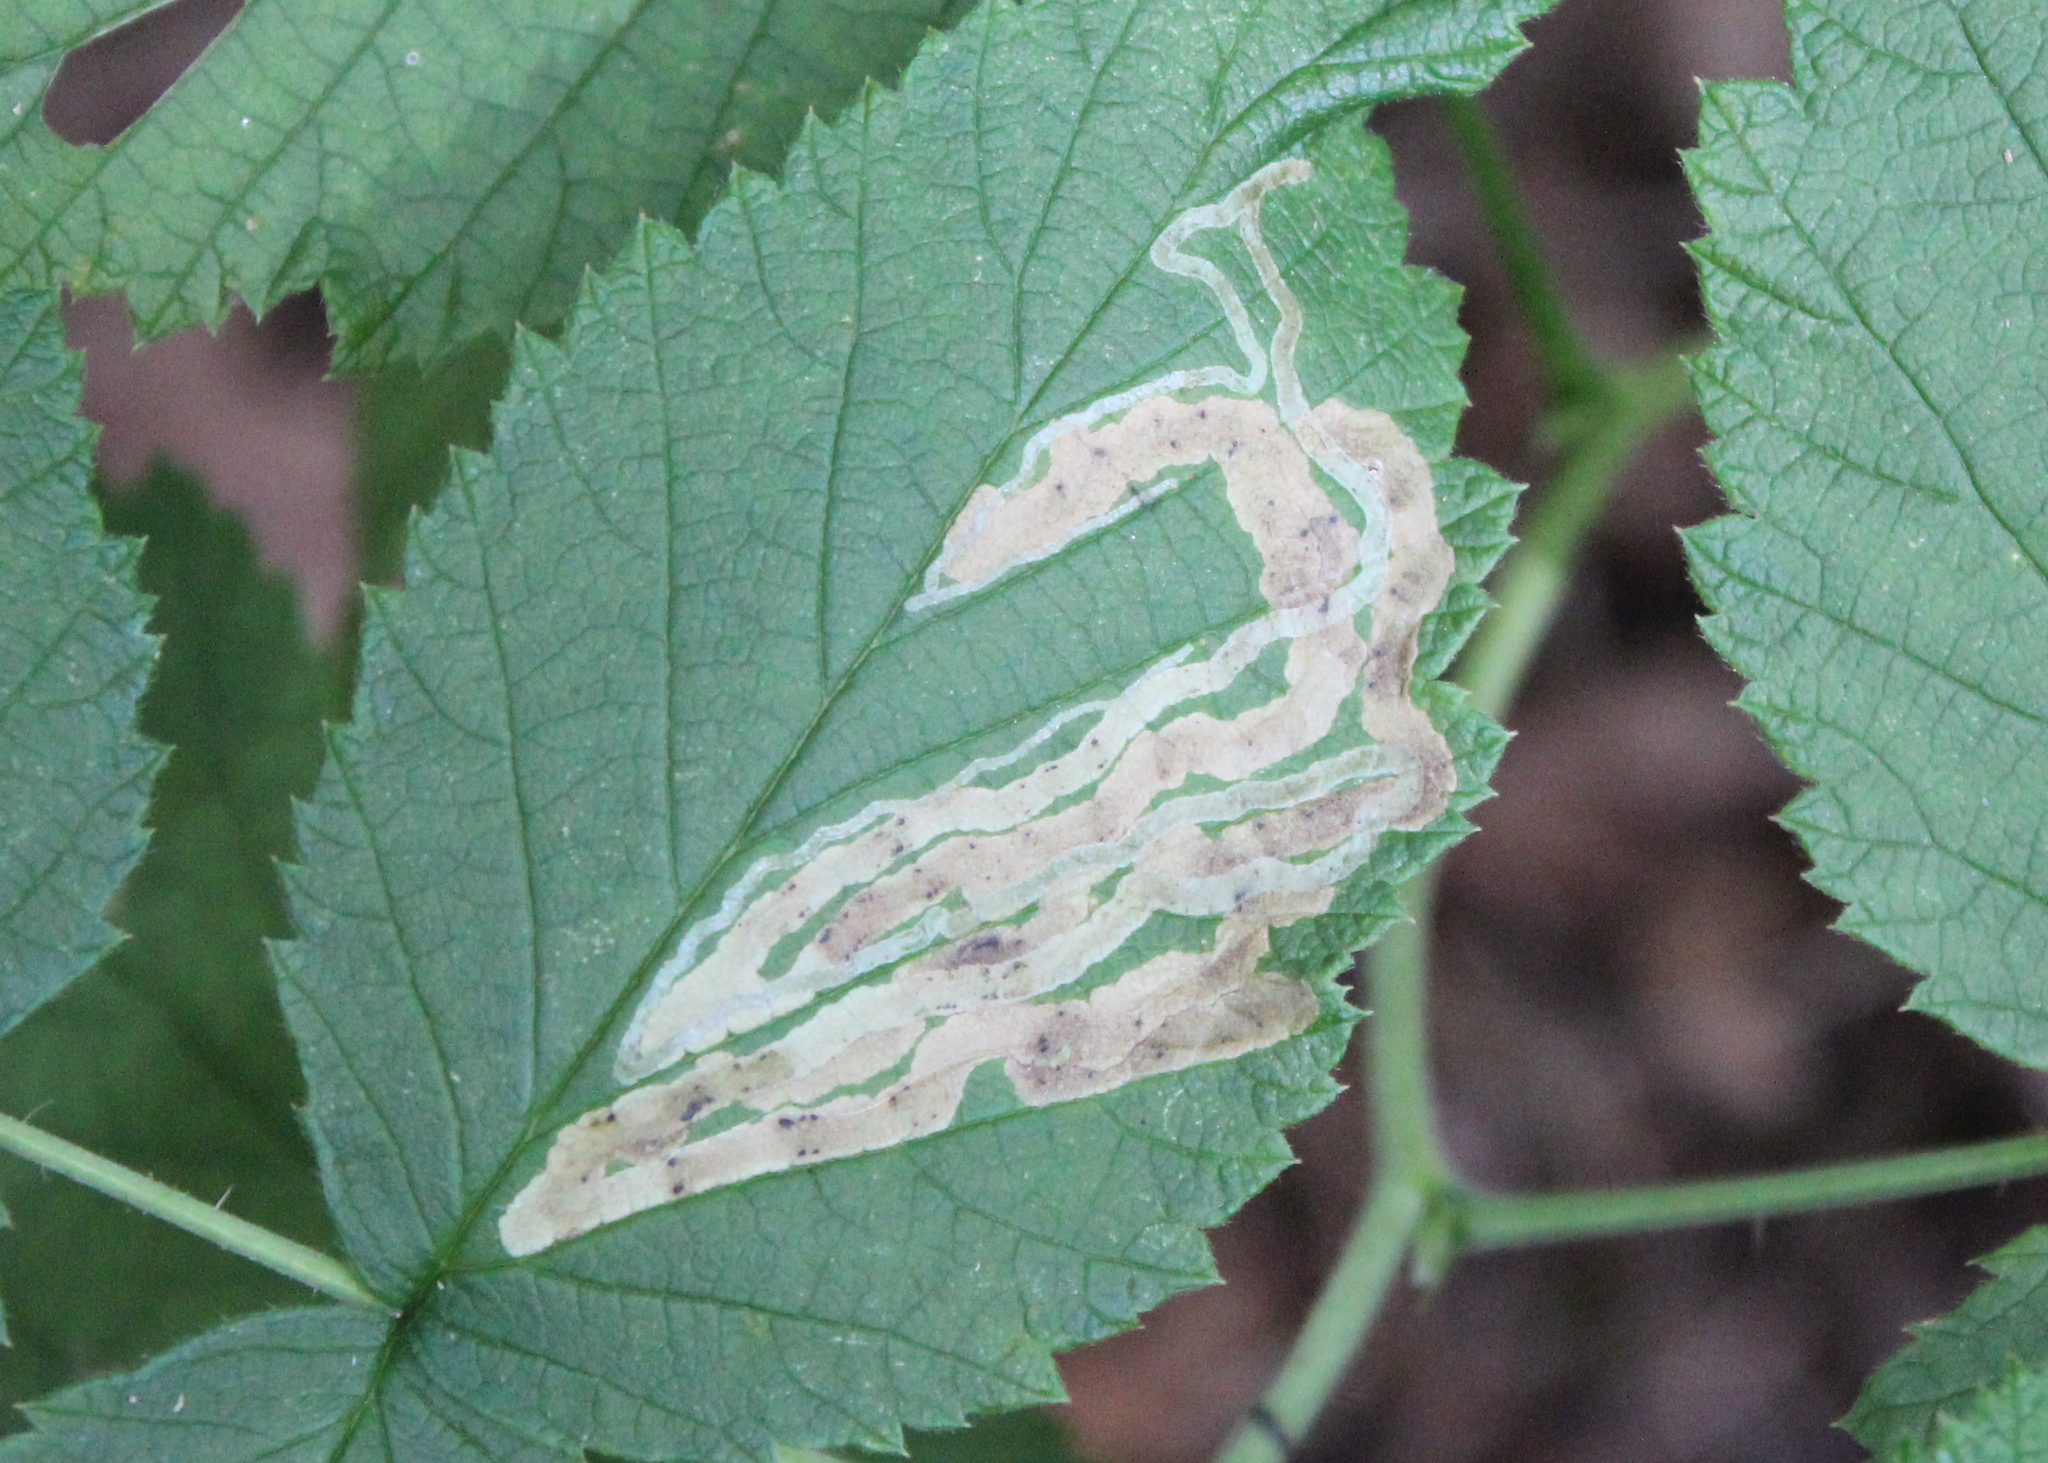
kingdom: Animalia
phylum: Arthropoda
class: Insecta
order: Diptera
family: Agromyzidae
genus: Agromyza
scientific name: Agromyza vockerothi
